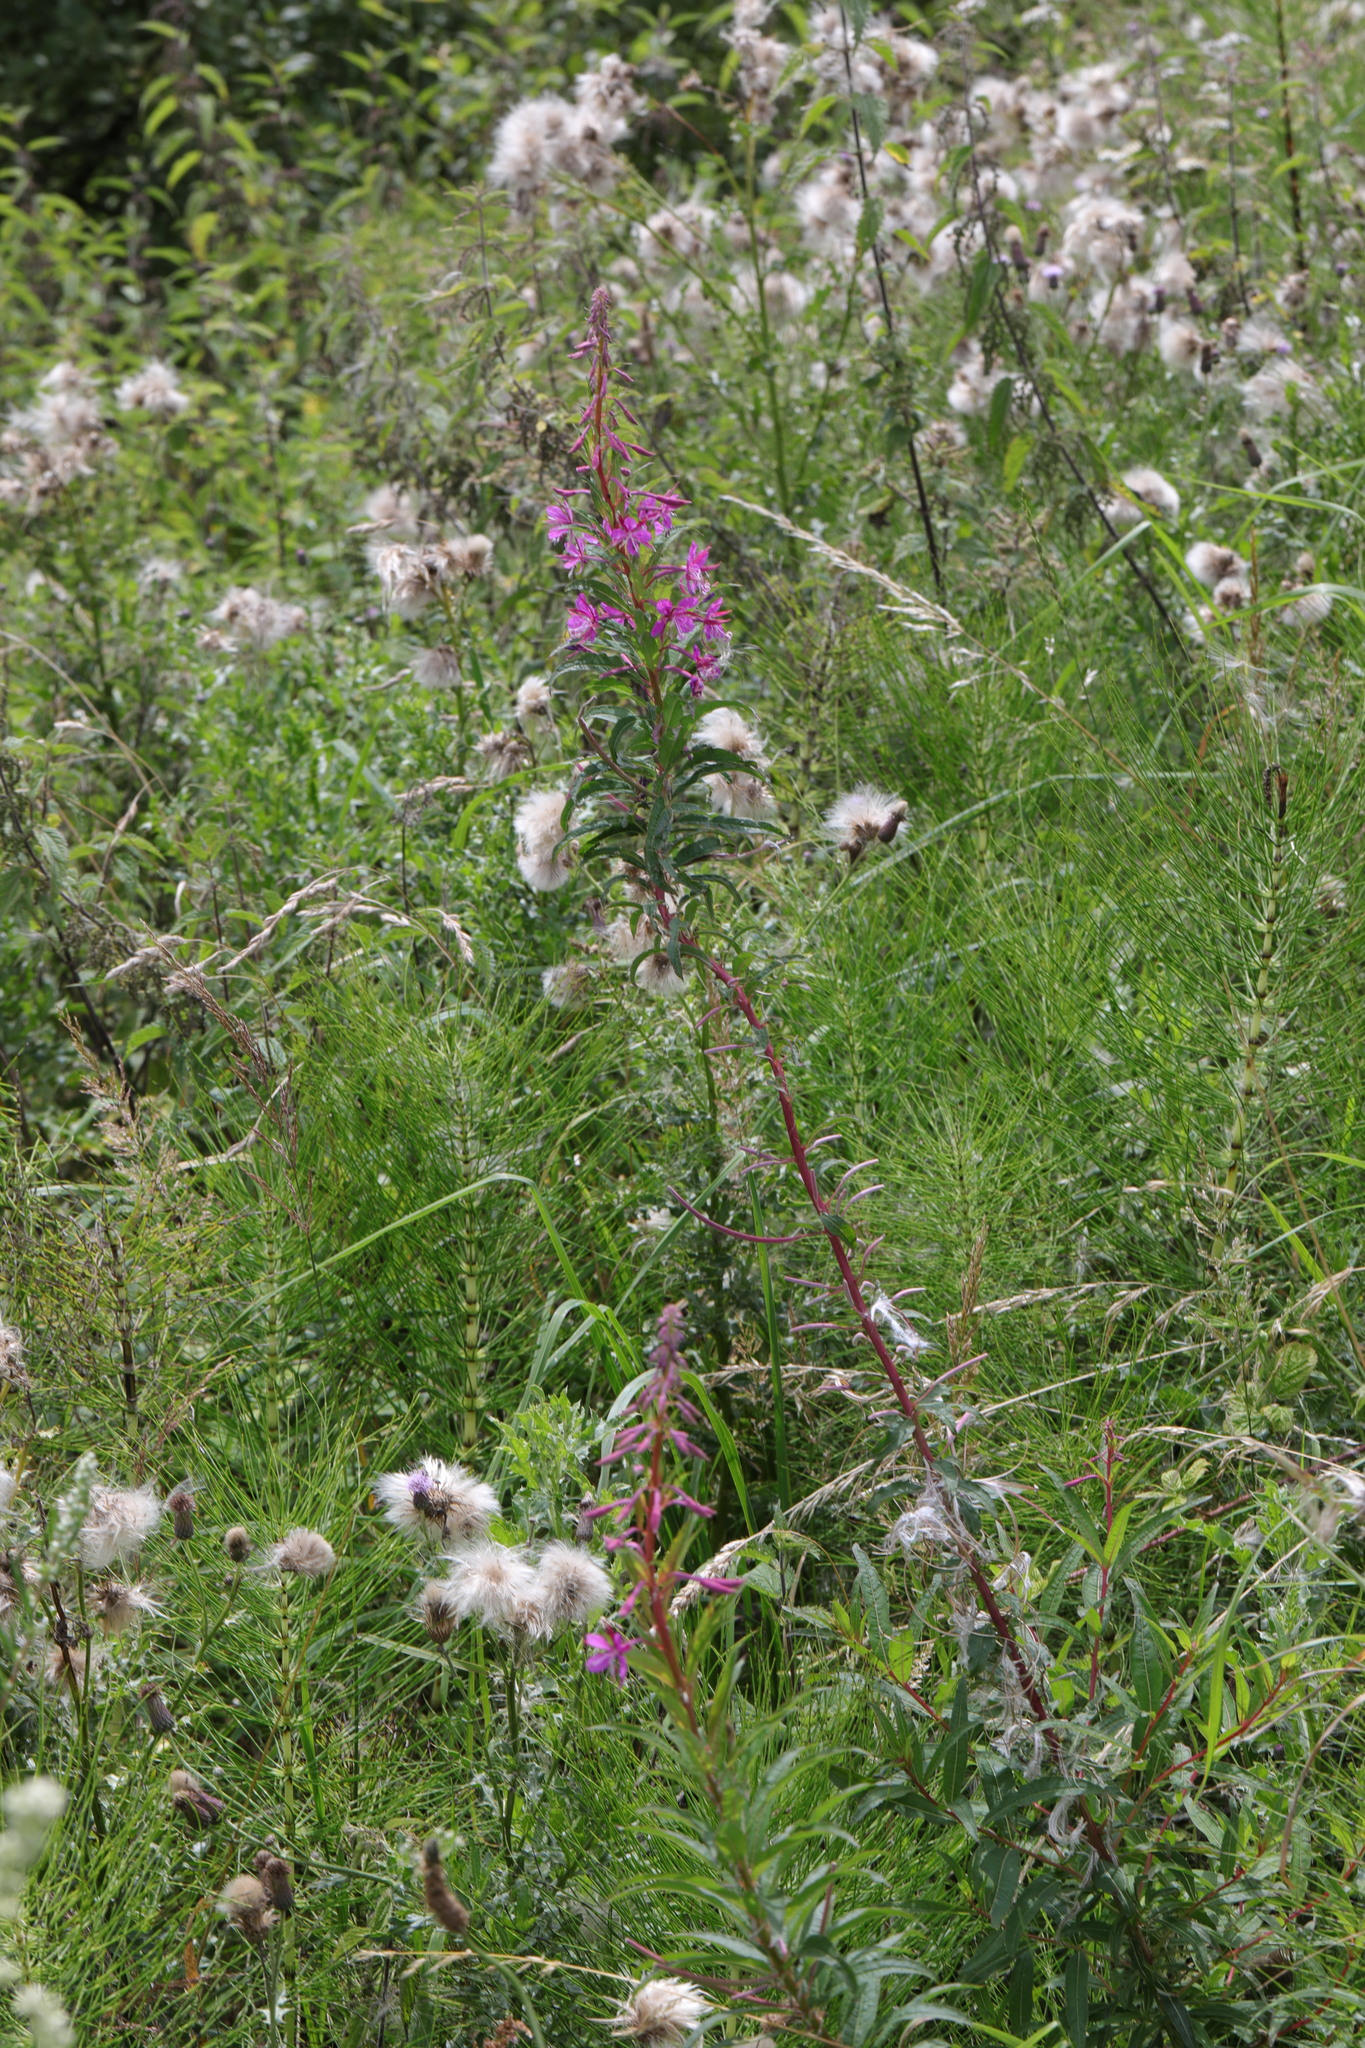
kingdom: Plantae
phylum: Tracheophyta
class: Magnoliopsida
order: Myrtales
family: Onagraceae
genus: Chamaenerion
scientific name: Chamaenerion angustifolium
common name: Fireweed
